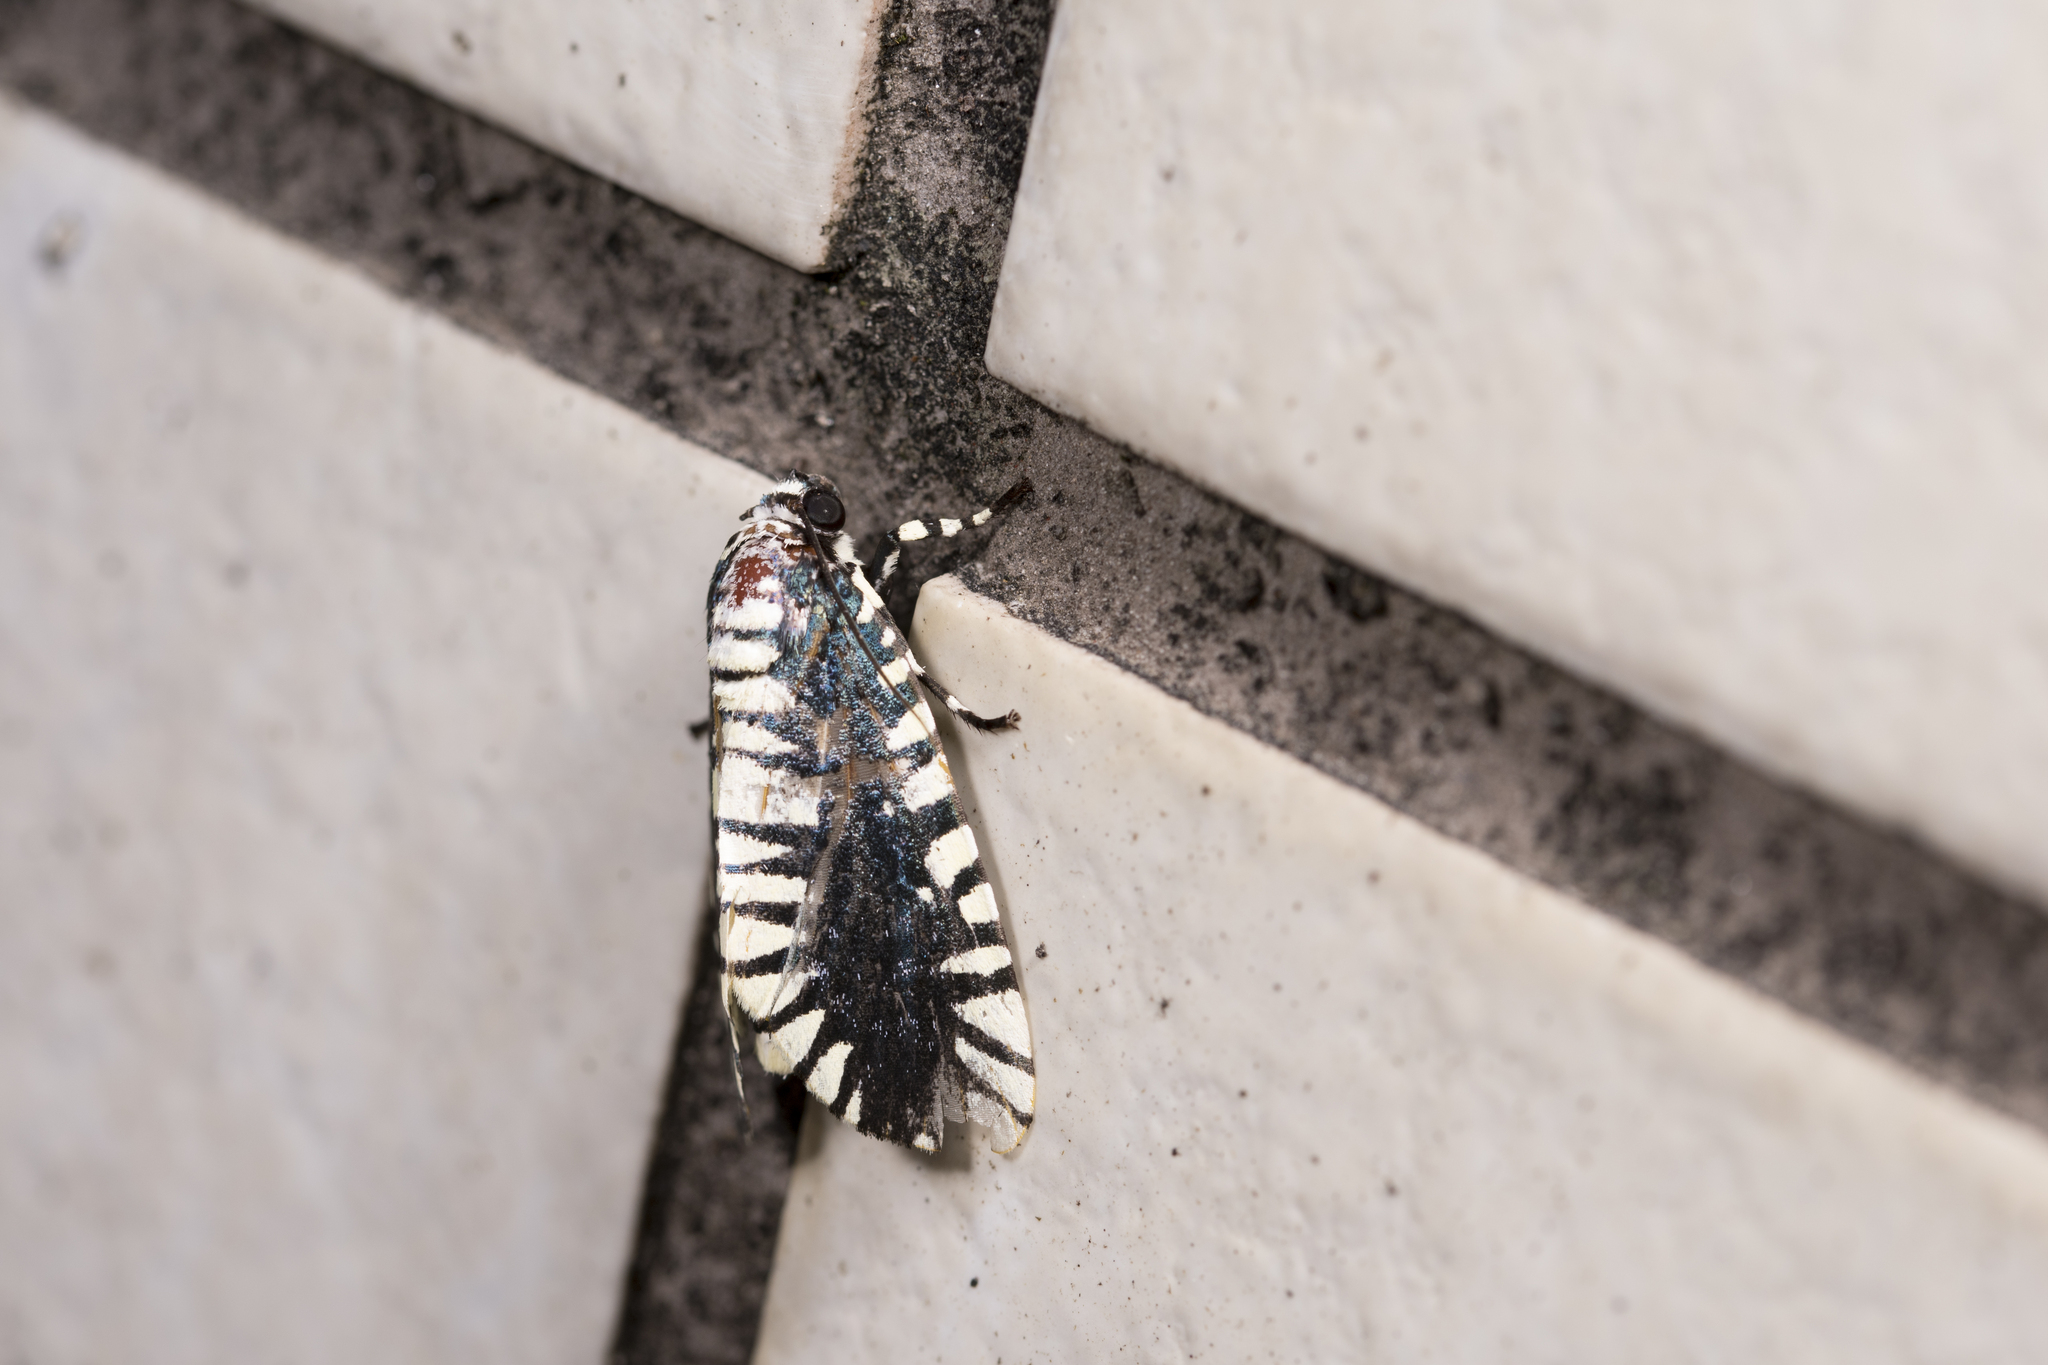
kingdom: Animalia
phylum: Arthropoda
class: Insecta
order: Lepidoptera
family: Noctuidae
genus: Apsarasa
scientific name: Apsarasa radians
